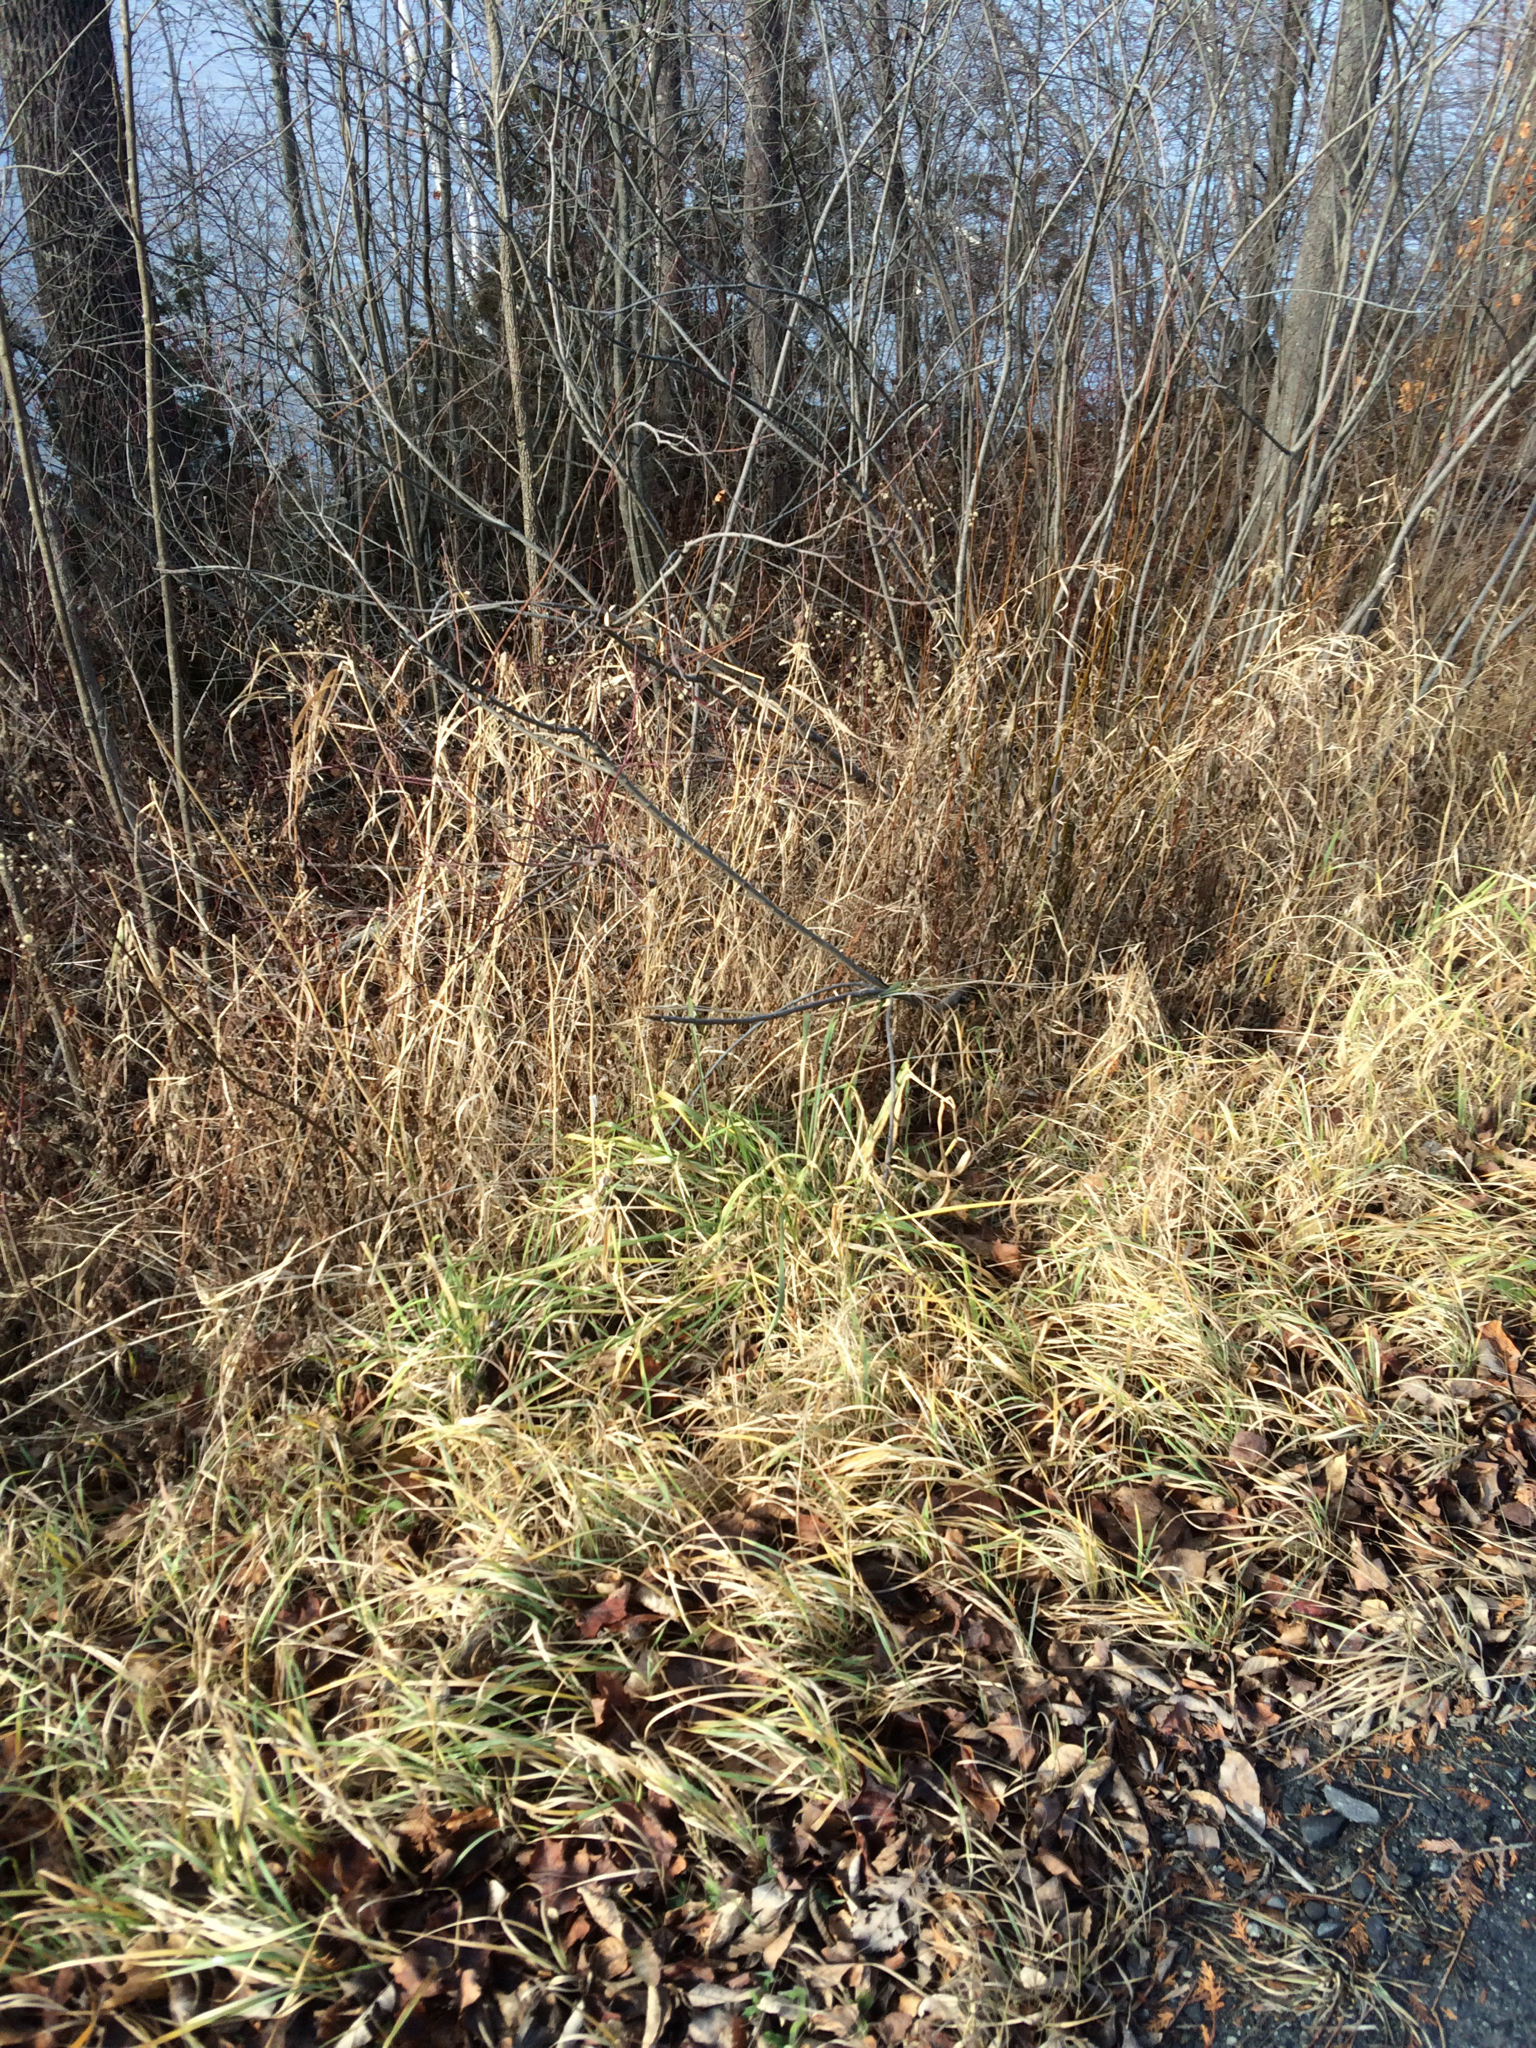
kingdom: Plantae
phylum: Tracheophyta
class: Liliopsida
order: Poales
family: Poaceae
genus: Phalaris
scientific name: Phalaris arundinacea
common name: Reed canary-grass
